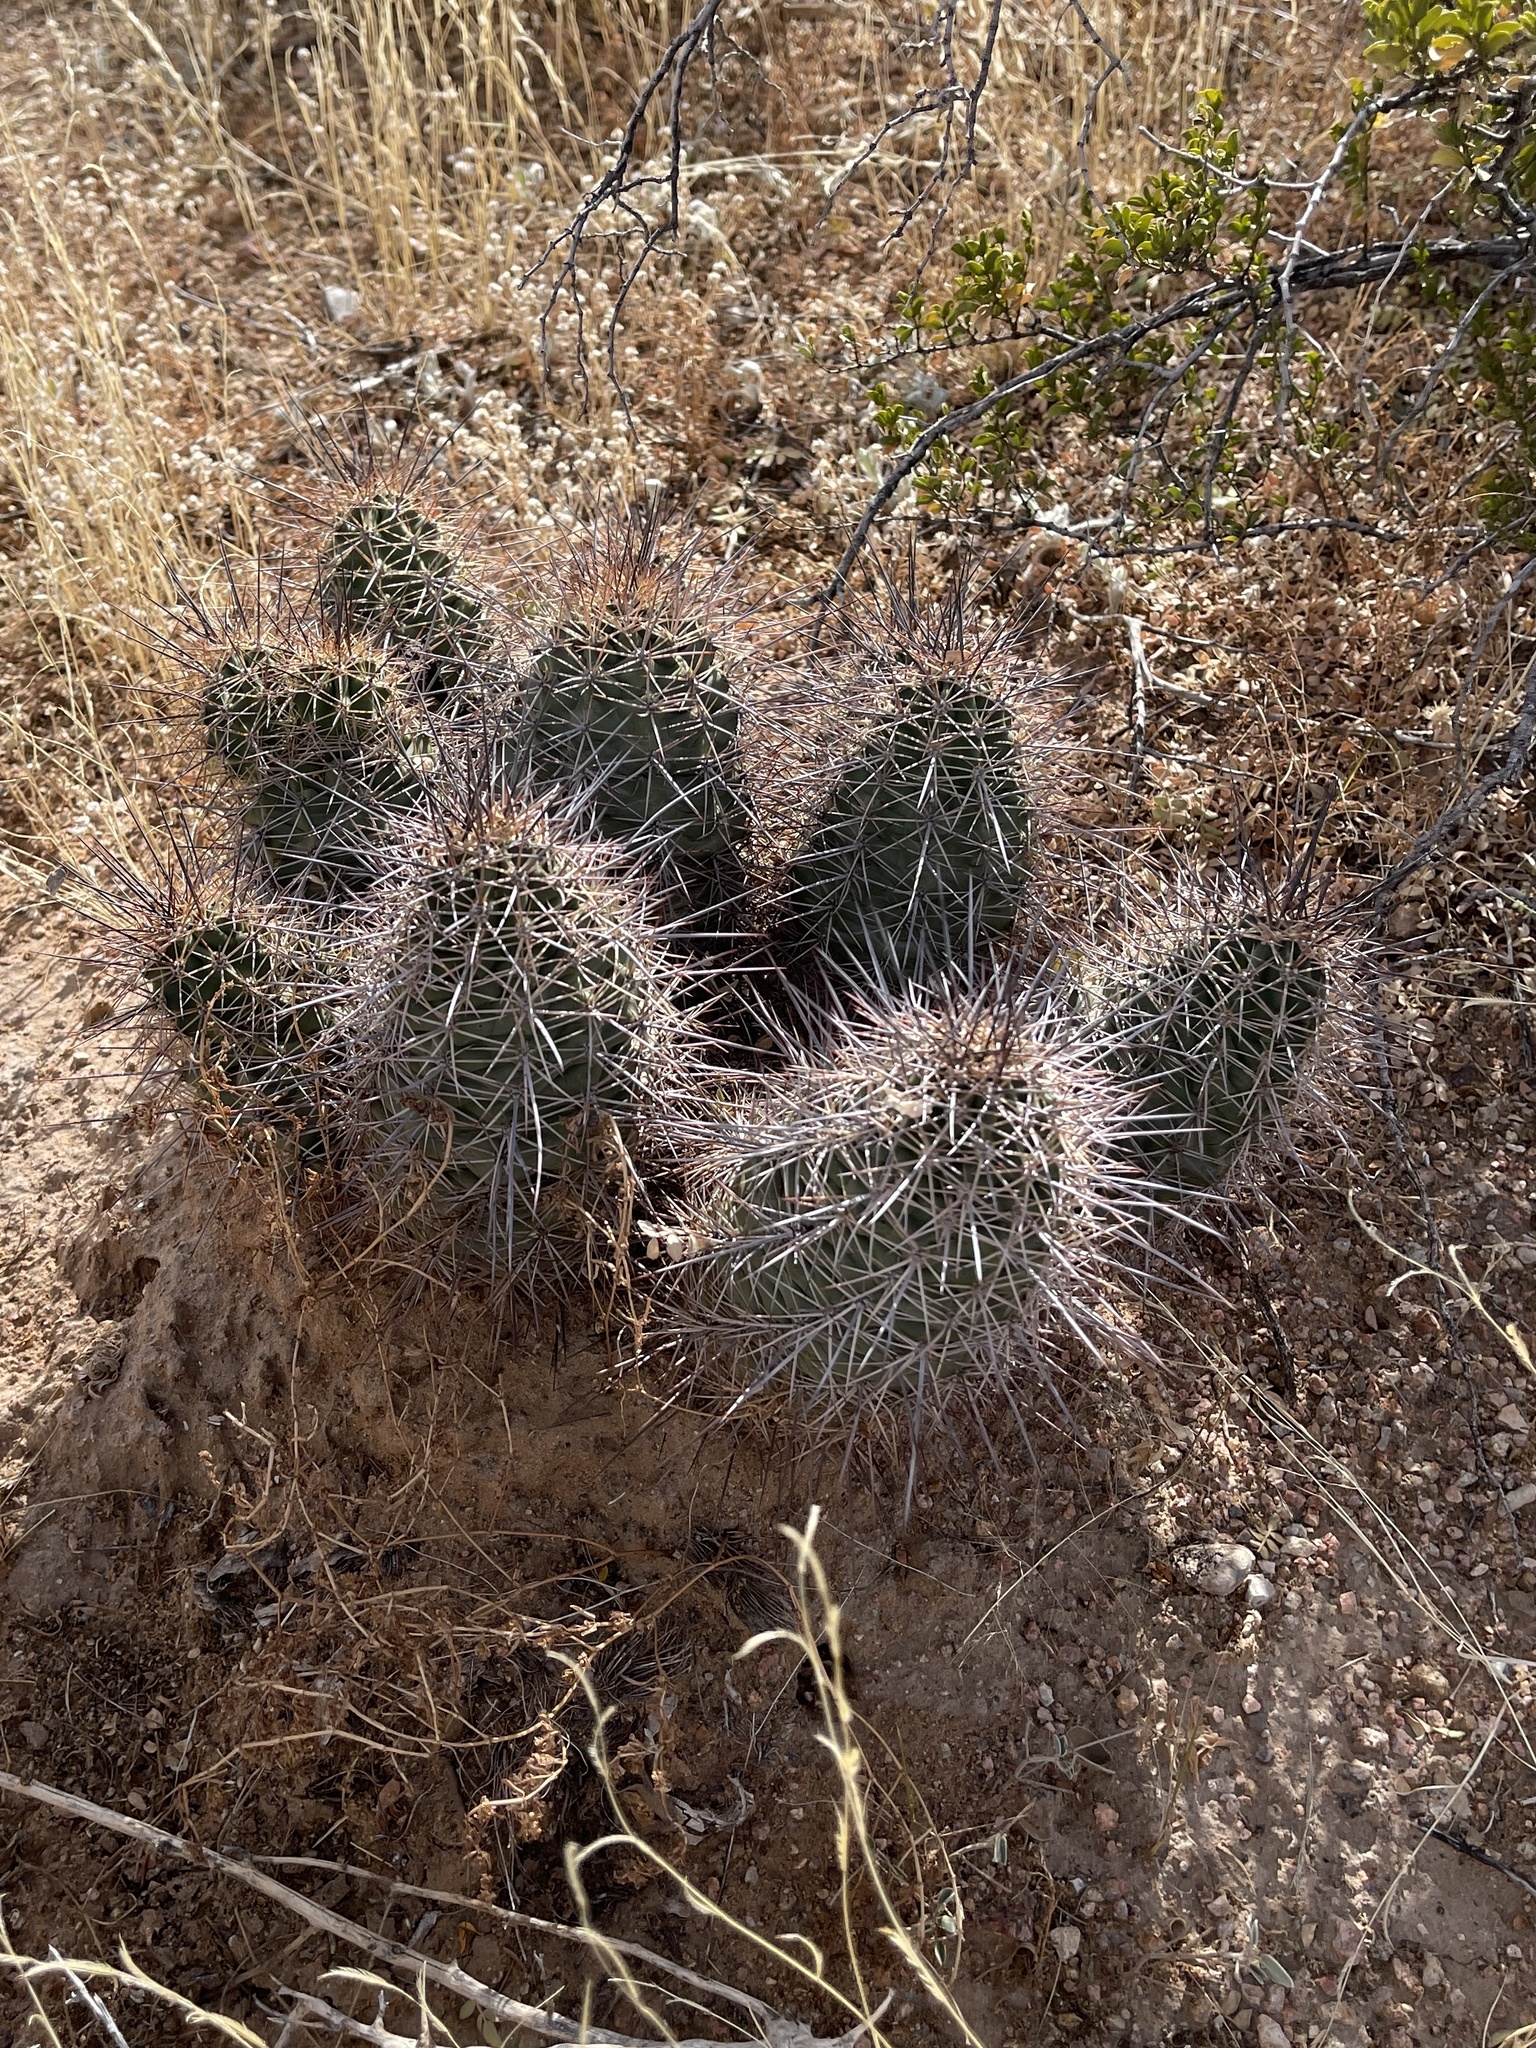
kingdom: Plantae
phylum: Tracheophyta
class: Magnoliopsida
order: Caryophyllales
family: Cactaceae
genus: Echinocereus
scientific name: Echinocereus coccineus
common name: Scarlet hedgehog cactus
